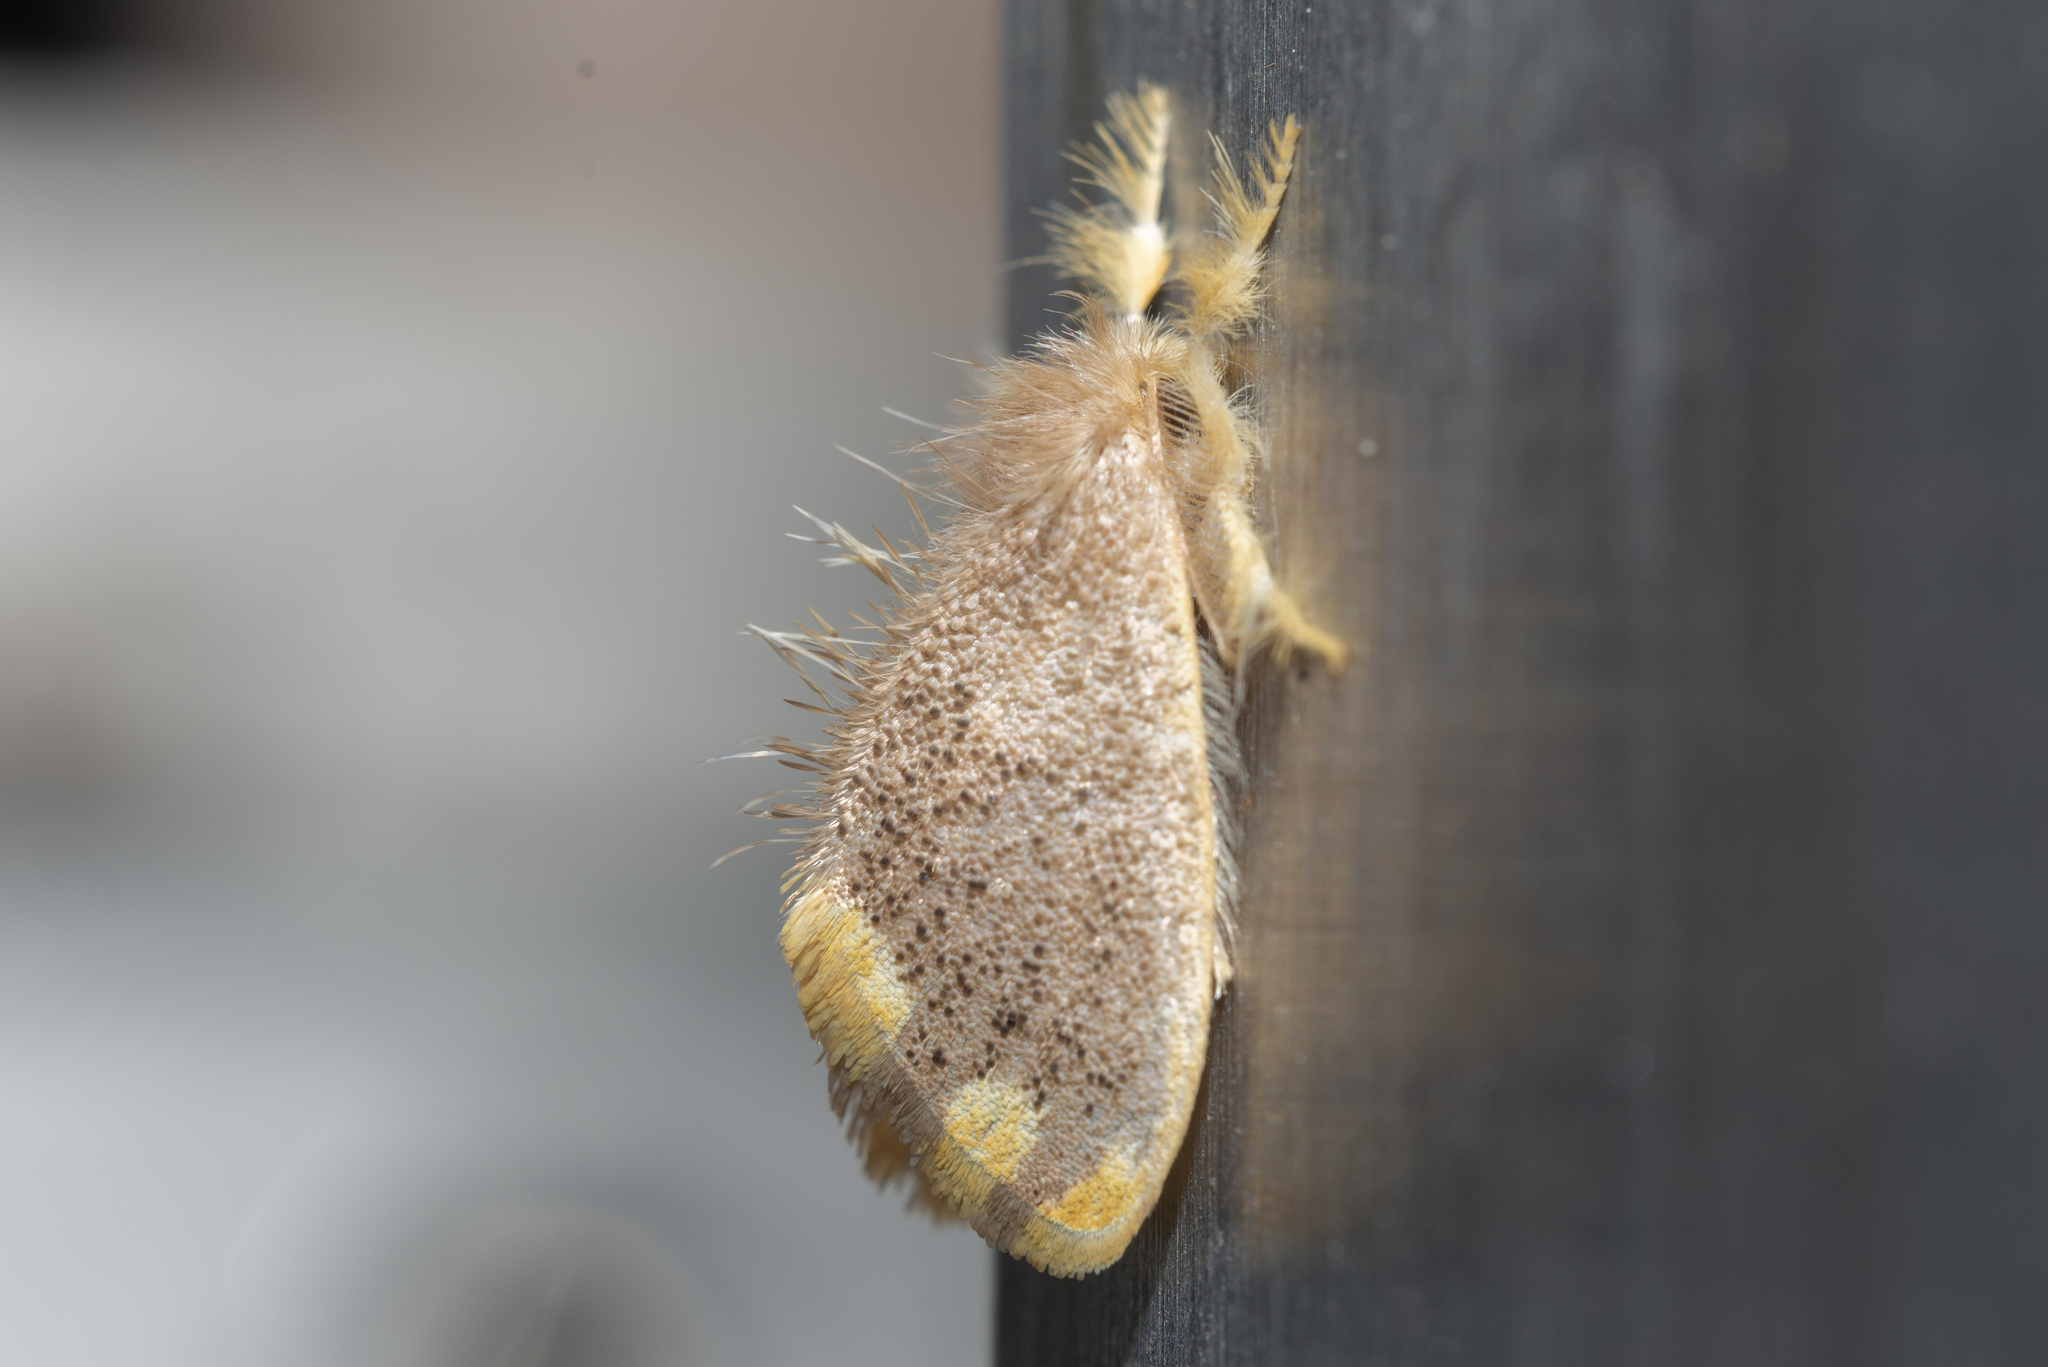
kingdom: Animalia
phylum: Arthropoda
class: Insecta
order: Lepidoptera
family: Erebidae
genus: Orvasca
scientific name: Orvasca subnotata
